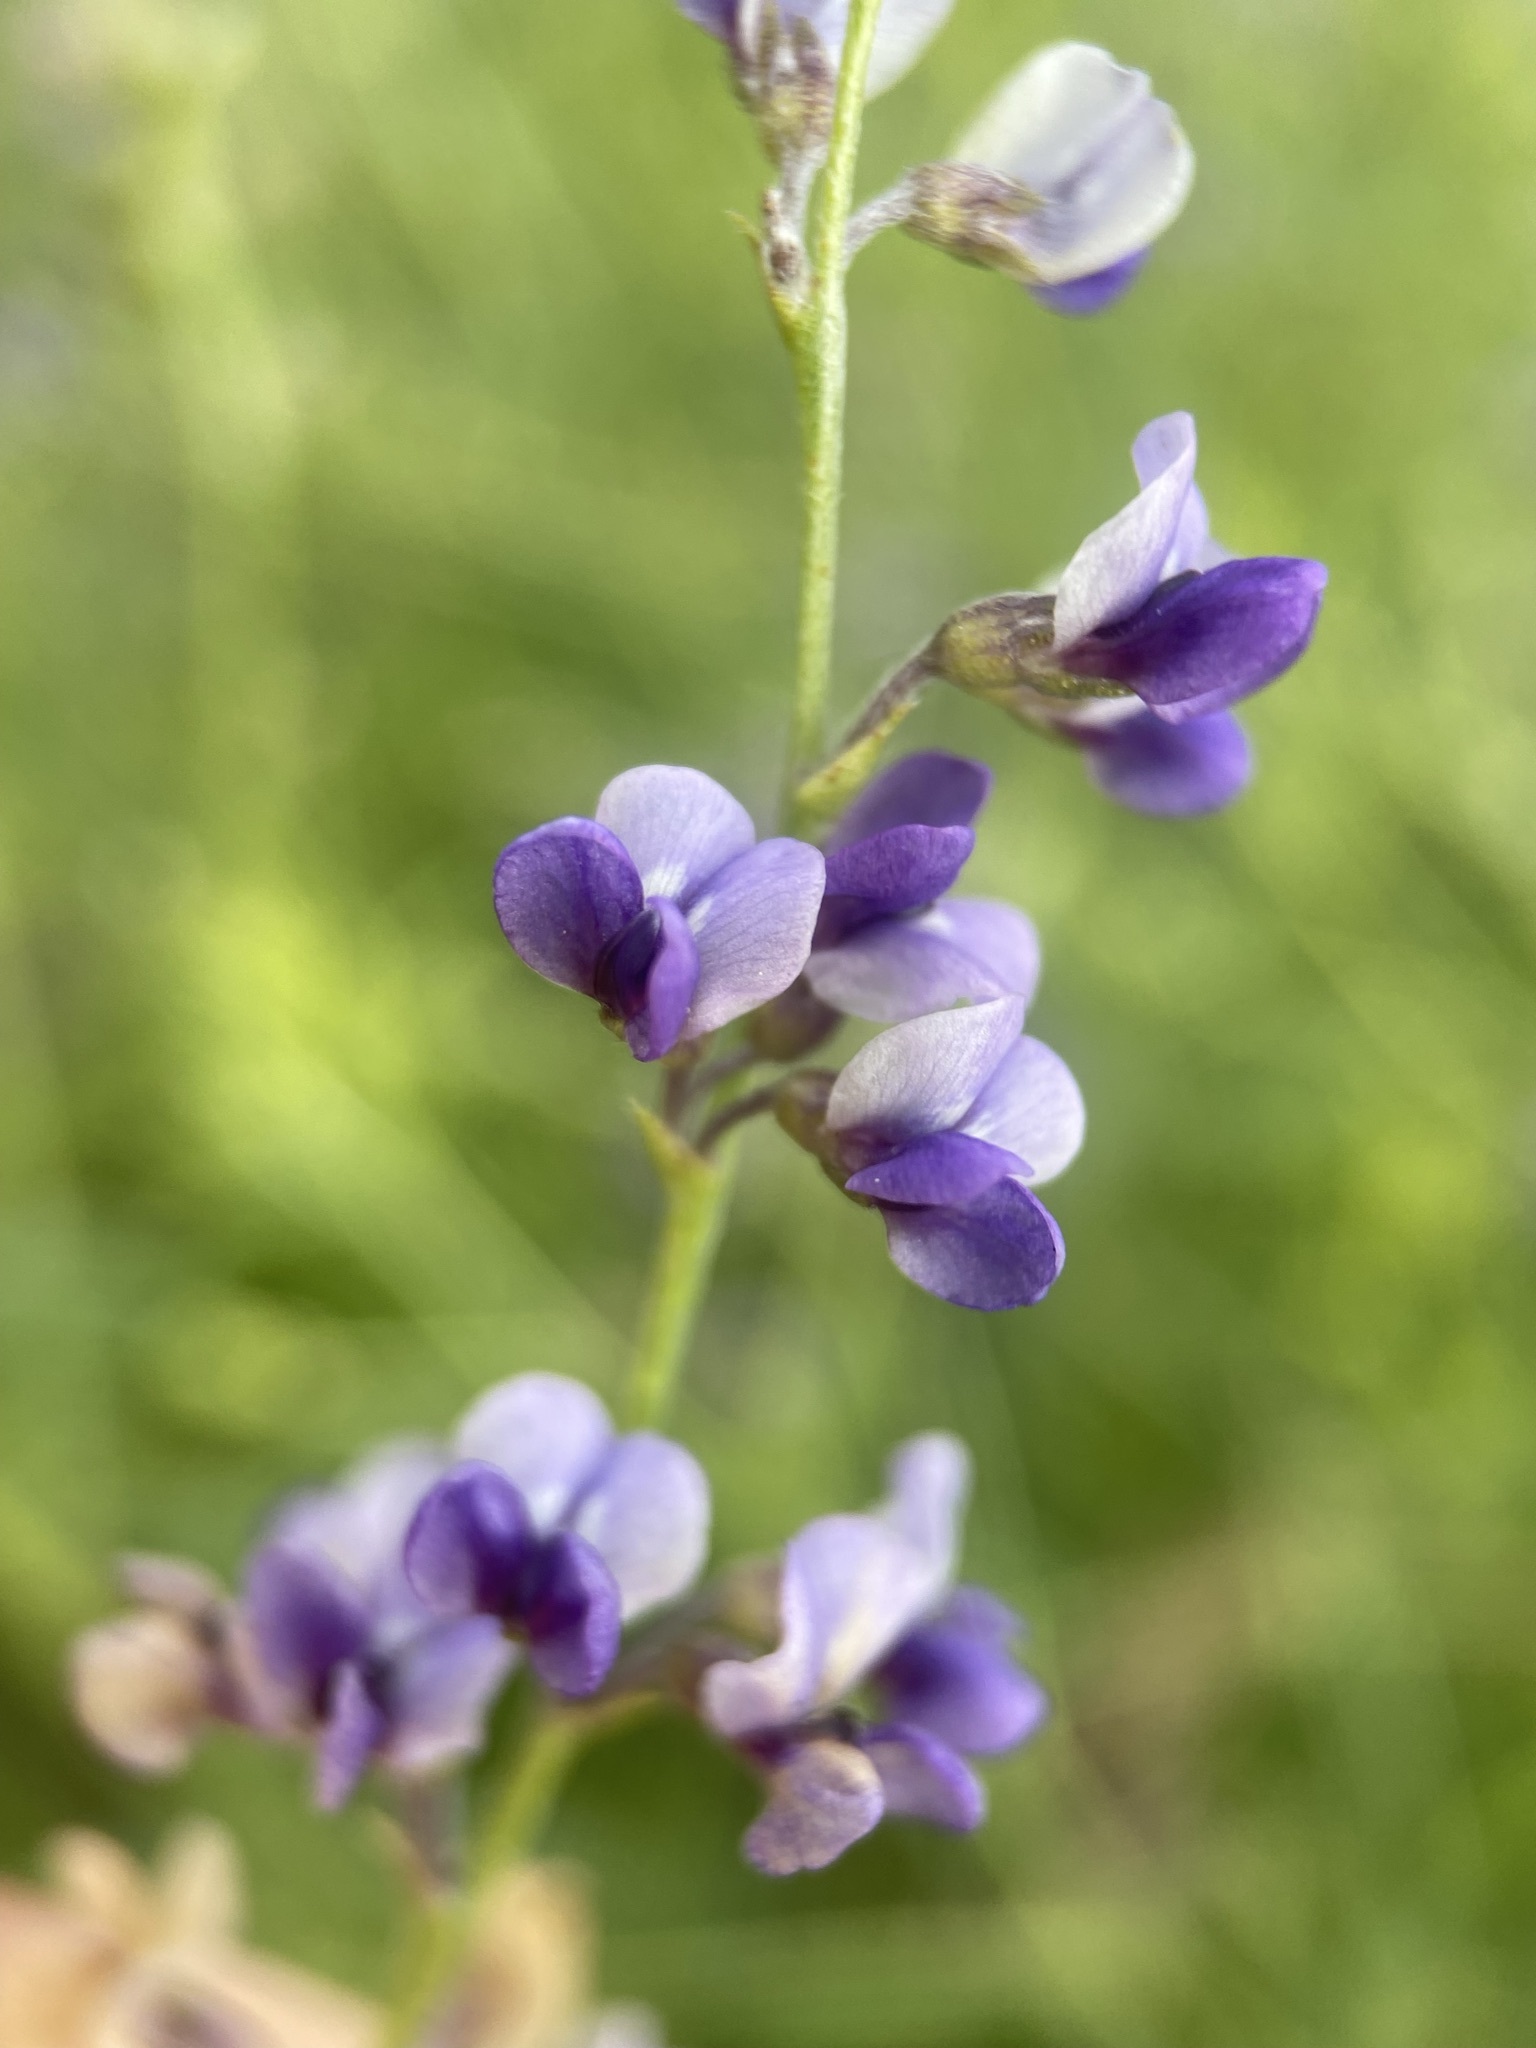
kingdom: Plantae
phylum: Tracheophyta
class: Magnoliopsida
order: Fabales
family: Fabaceae
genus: Pediomelum
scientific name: Pediomelum tenuiflorum
